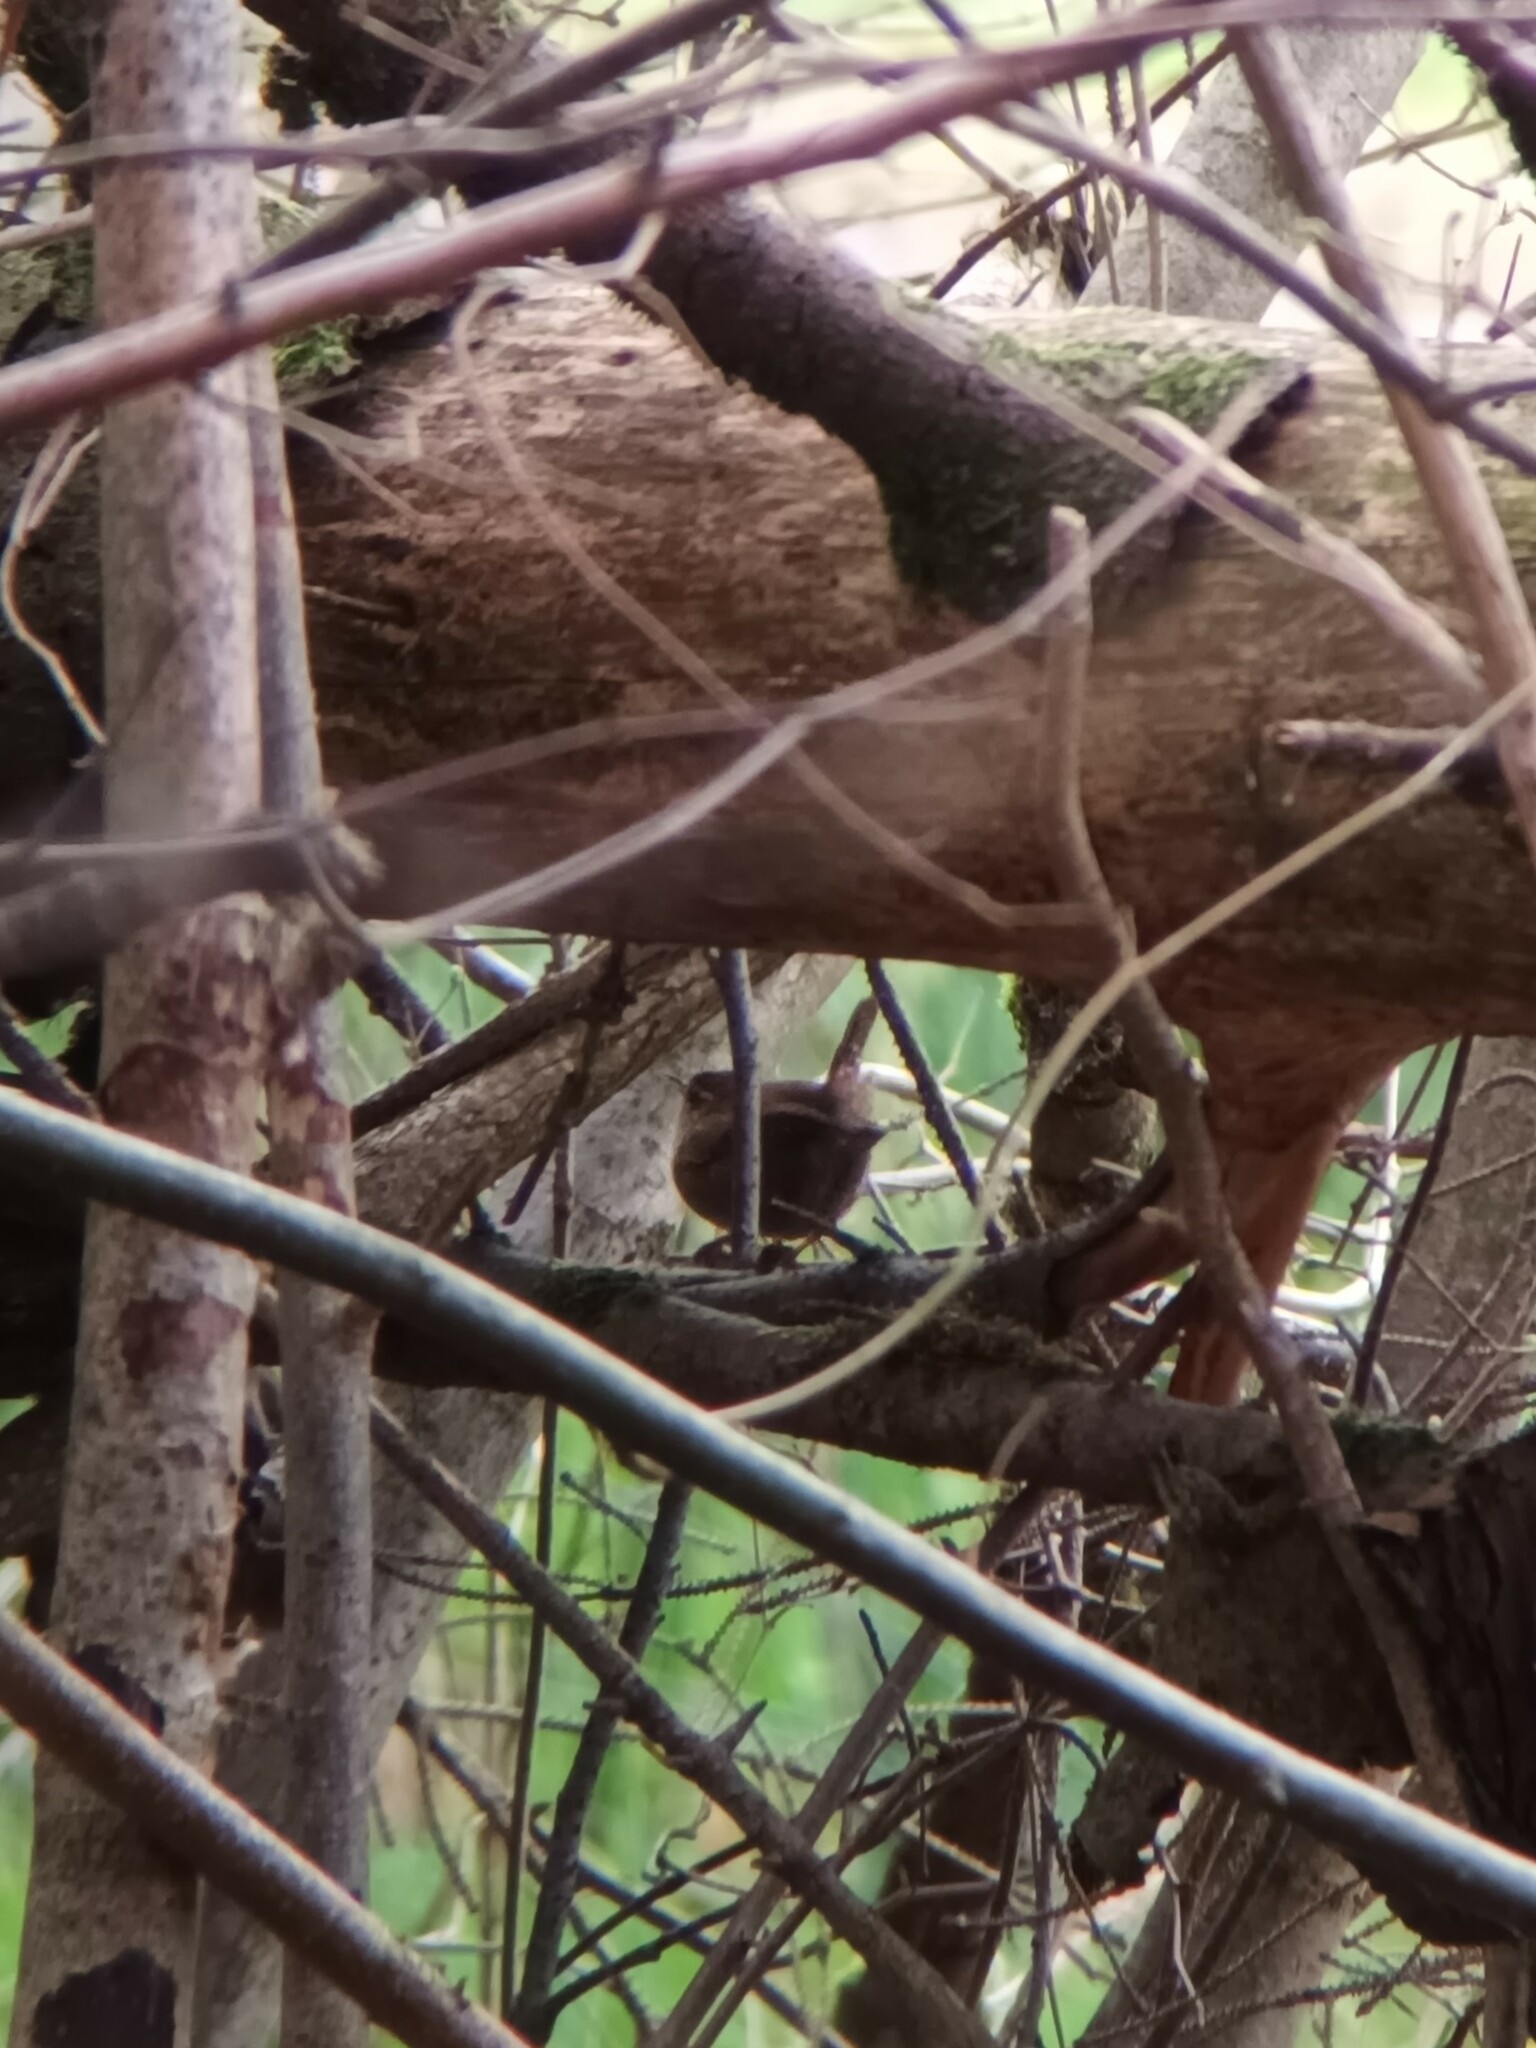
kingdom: Animalia
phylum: Chordata
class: Aves
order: Passeriformes
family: Troglodytidae
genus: Troglodytes
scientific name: Troglodytes troglodytes
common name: Eurasian wren
